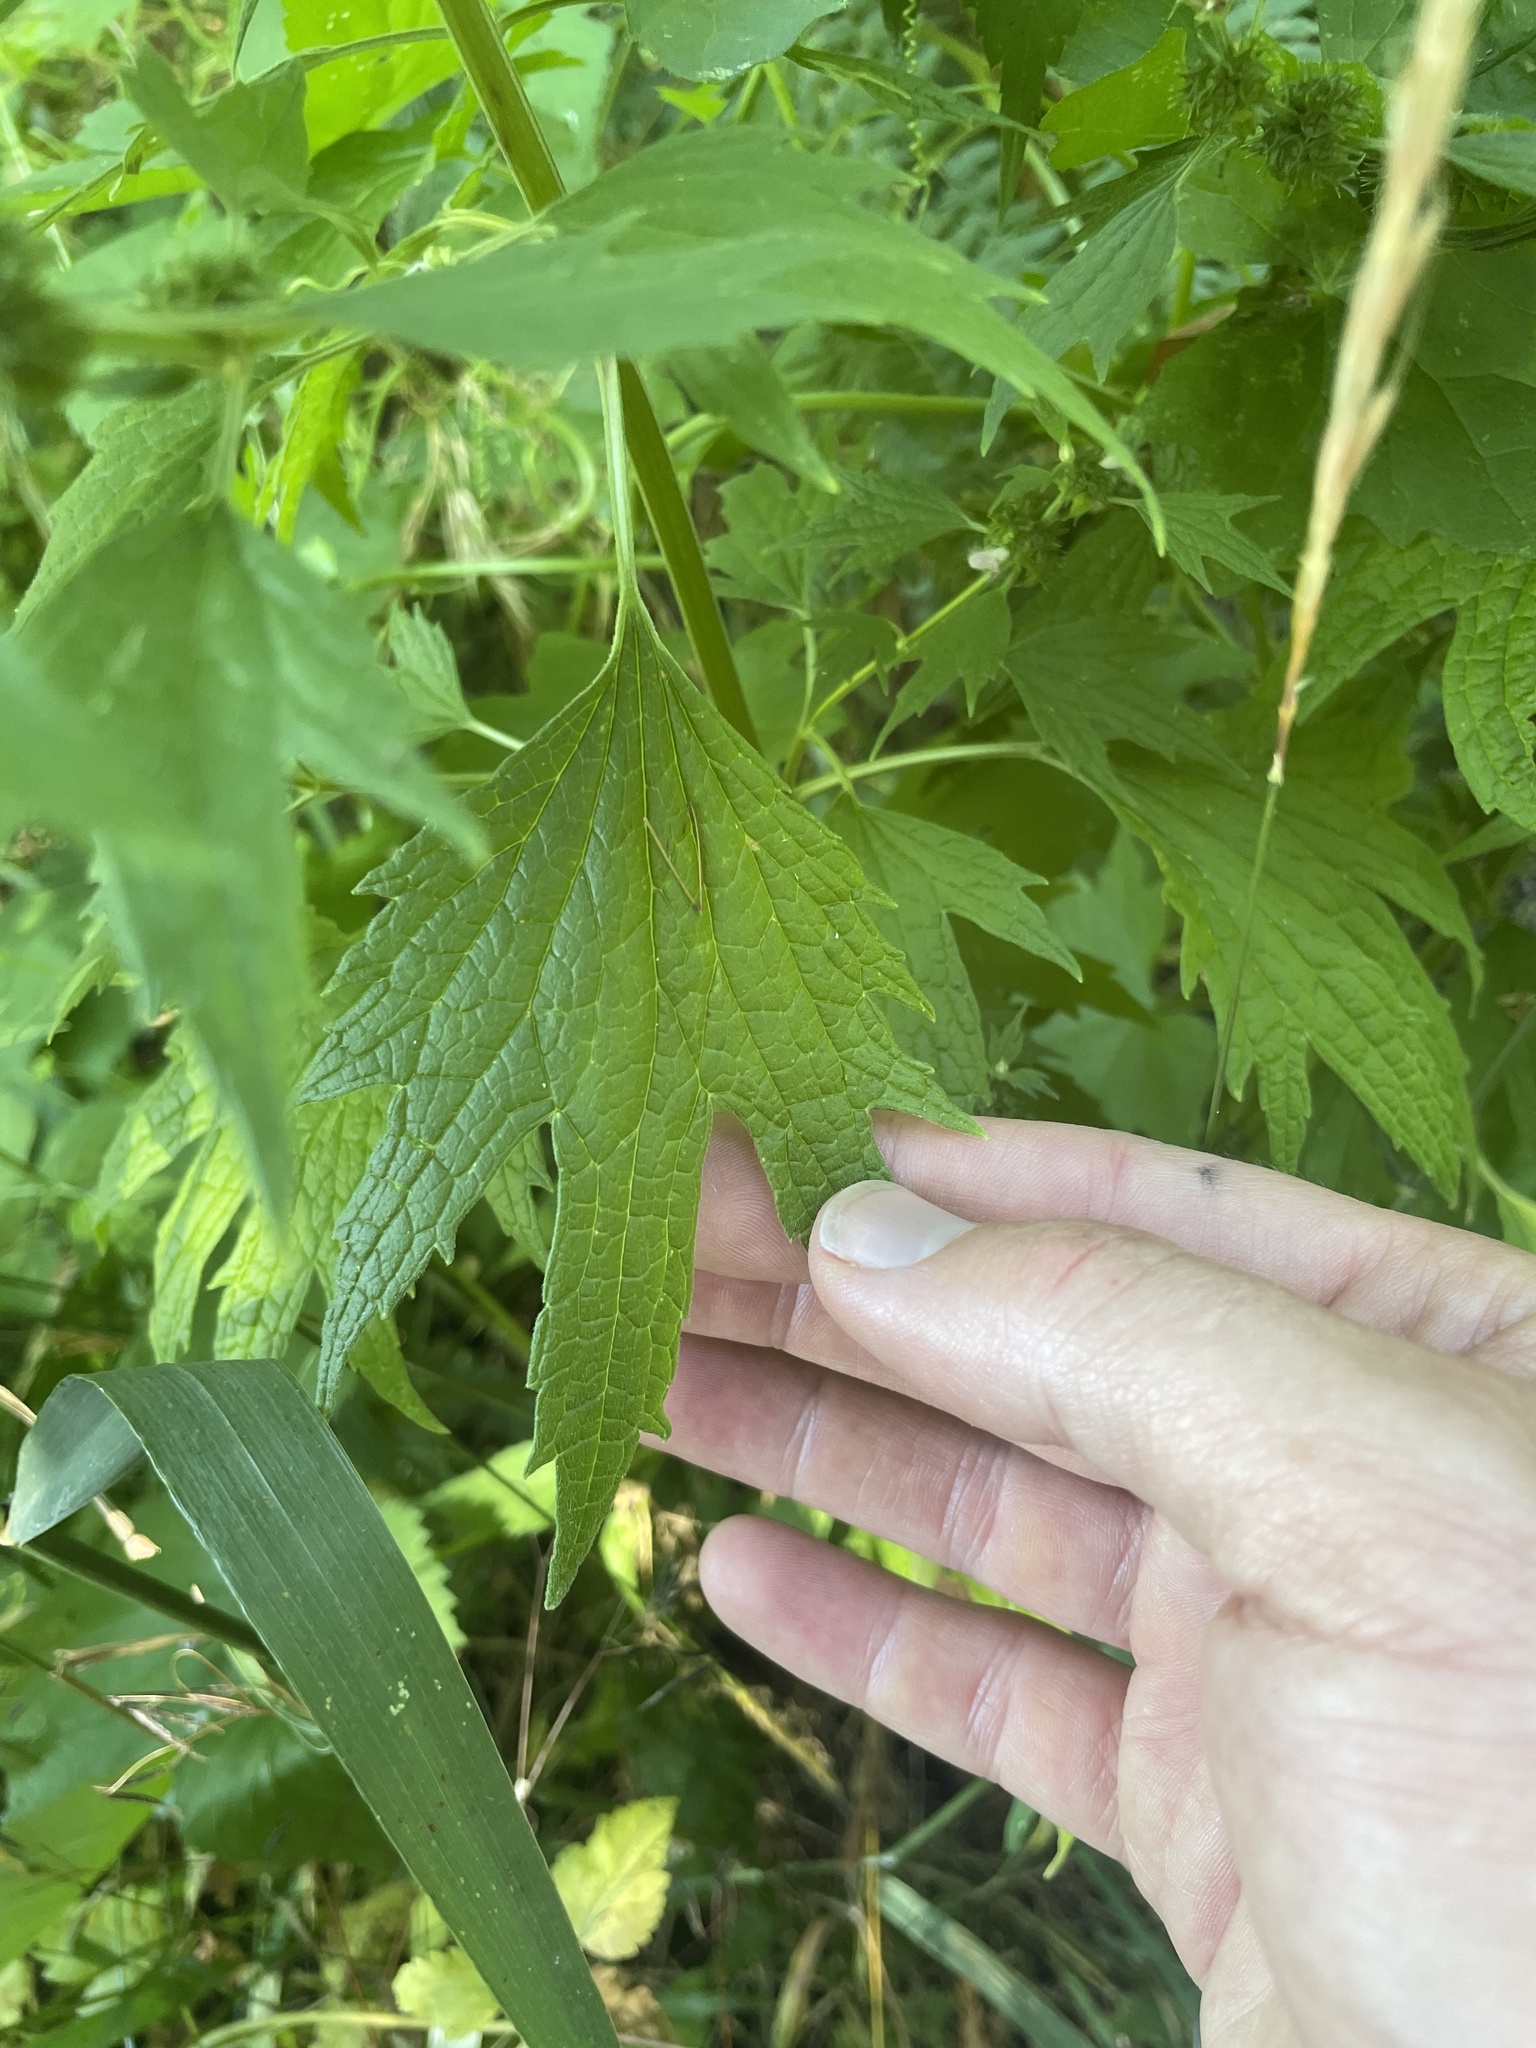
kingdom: Plantae
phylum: Tracheophyta
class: Magnoliopsida
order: Lamiales
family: Lamiaceae
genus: Leonurus
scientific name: Leonurus cardiaca
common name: Motherwort
